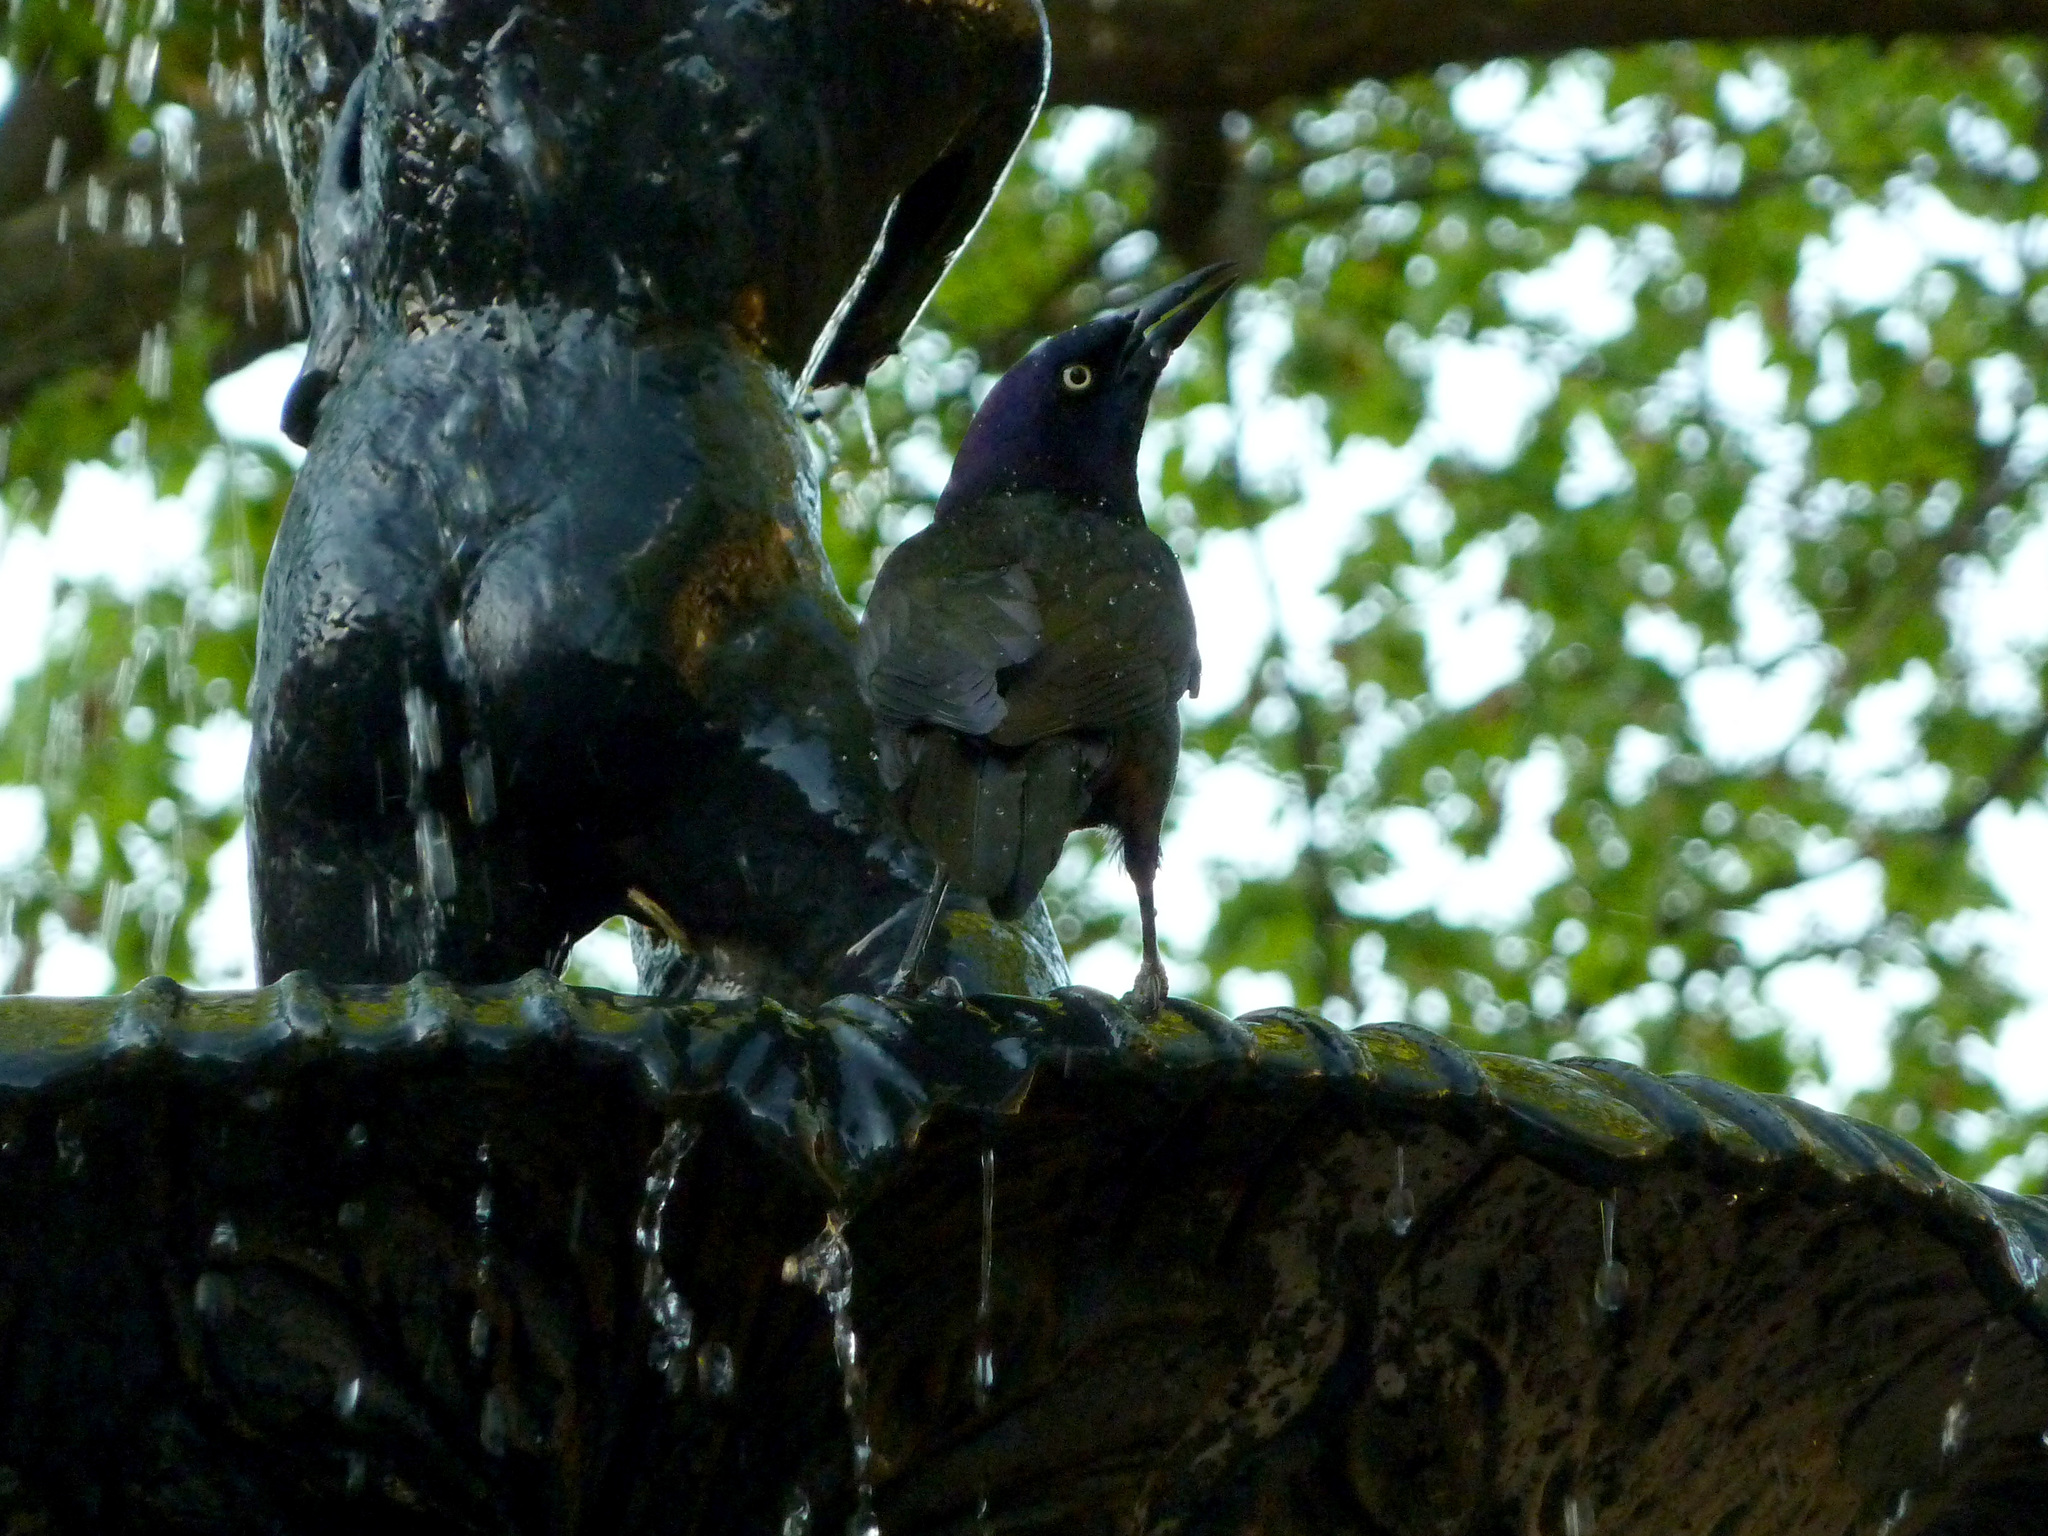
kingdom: Animalia
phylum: Chordata
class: Aves
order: Passeriformes
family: Icteridae
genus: Quiscalus
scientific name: Quiscalus quiscula
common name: Common grackle
